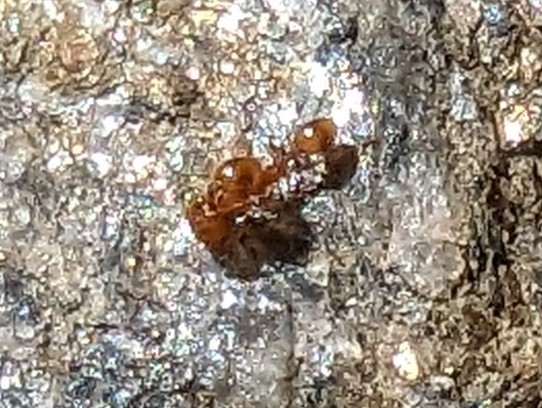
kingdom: Animalia
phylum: Arthropoda
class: Insecta
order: Hymenoptera
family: Formicidae
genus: Temnothorax
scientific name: Temnothorax curvispinosus
